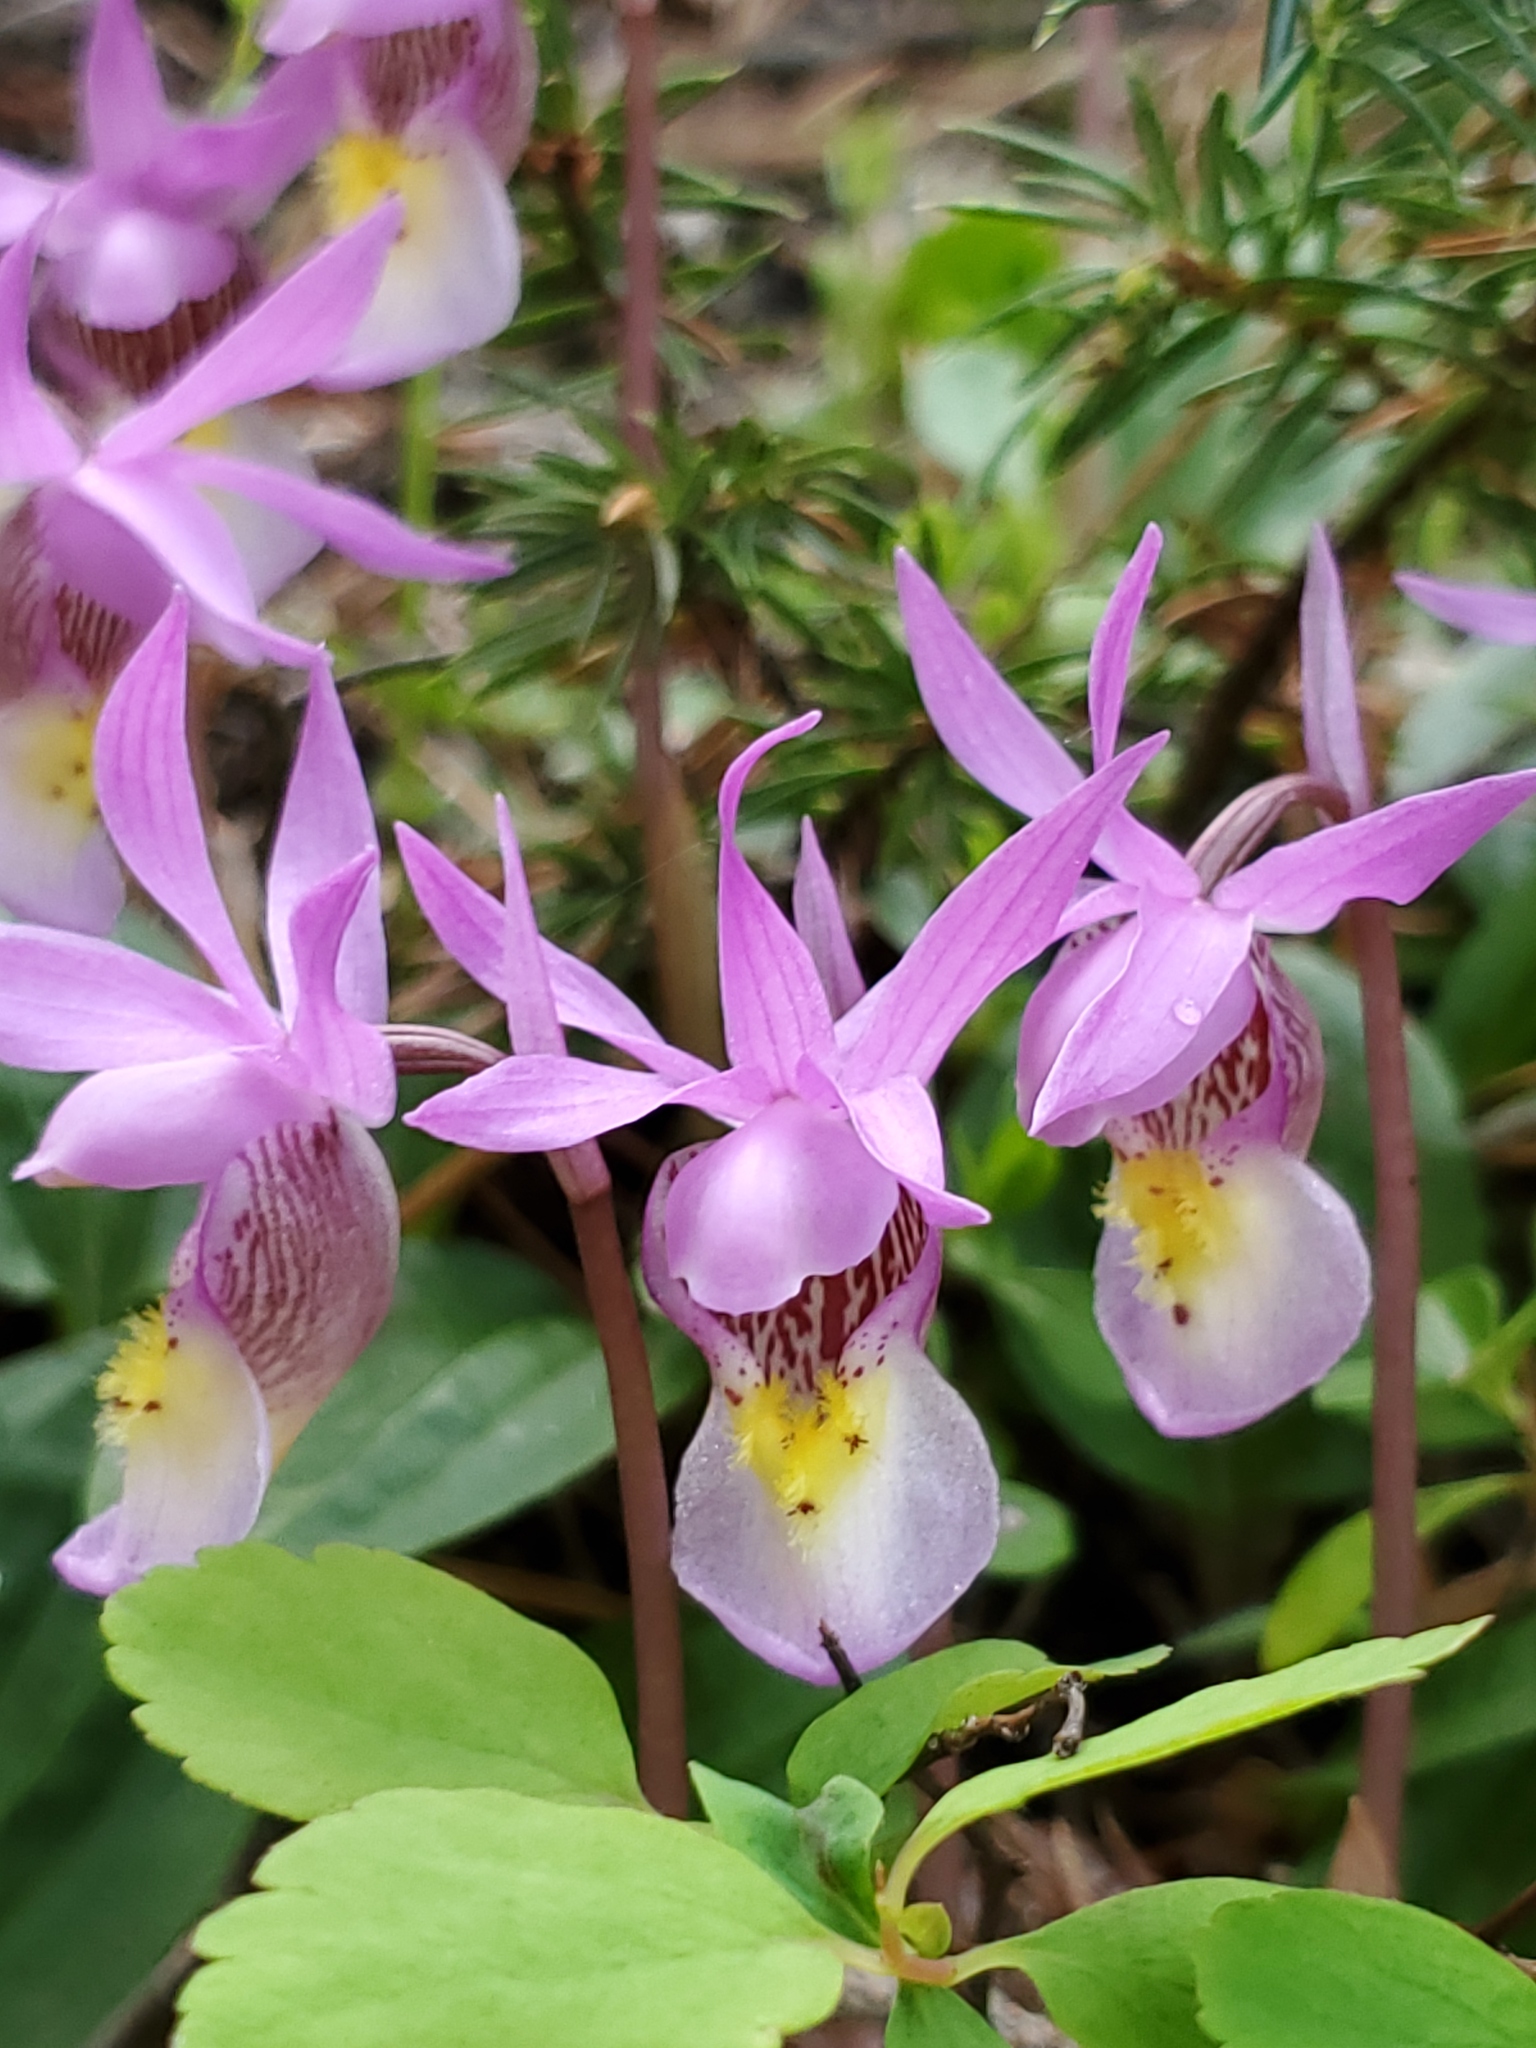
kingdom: Plantae
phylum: Tracheophyta
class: Liliopsida
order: Asparagales
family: Orchidaceae
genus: Calypso
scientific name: Calypso bulbosa
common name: Calypso
